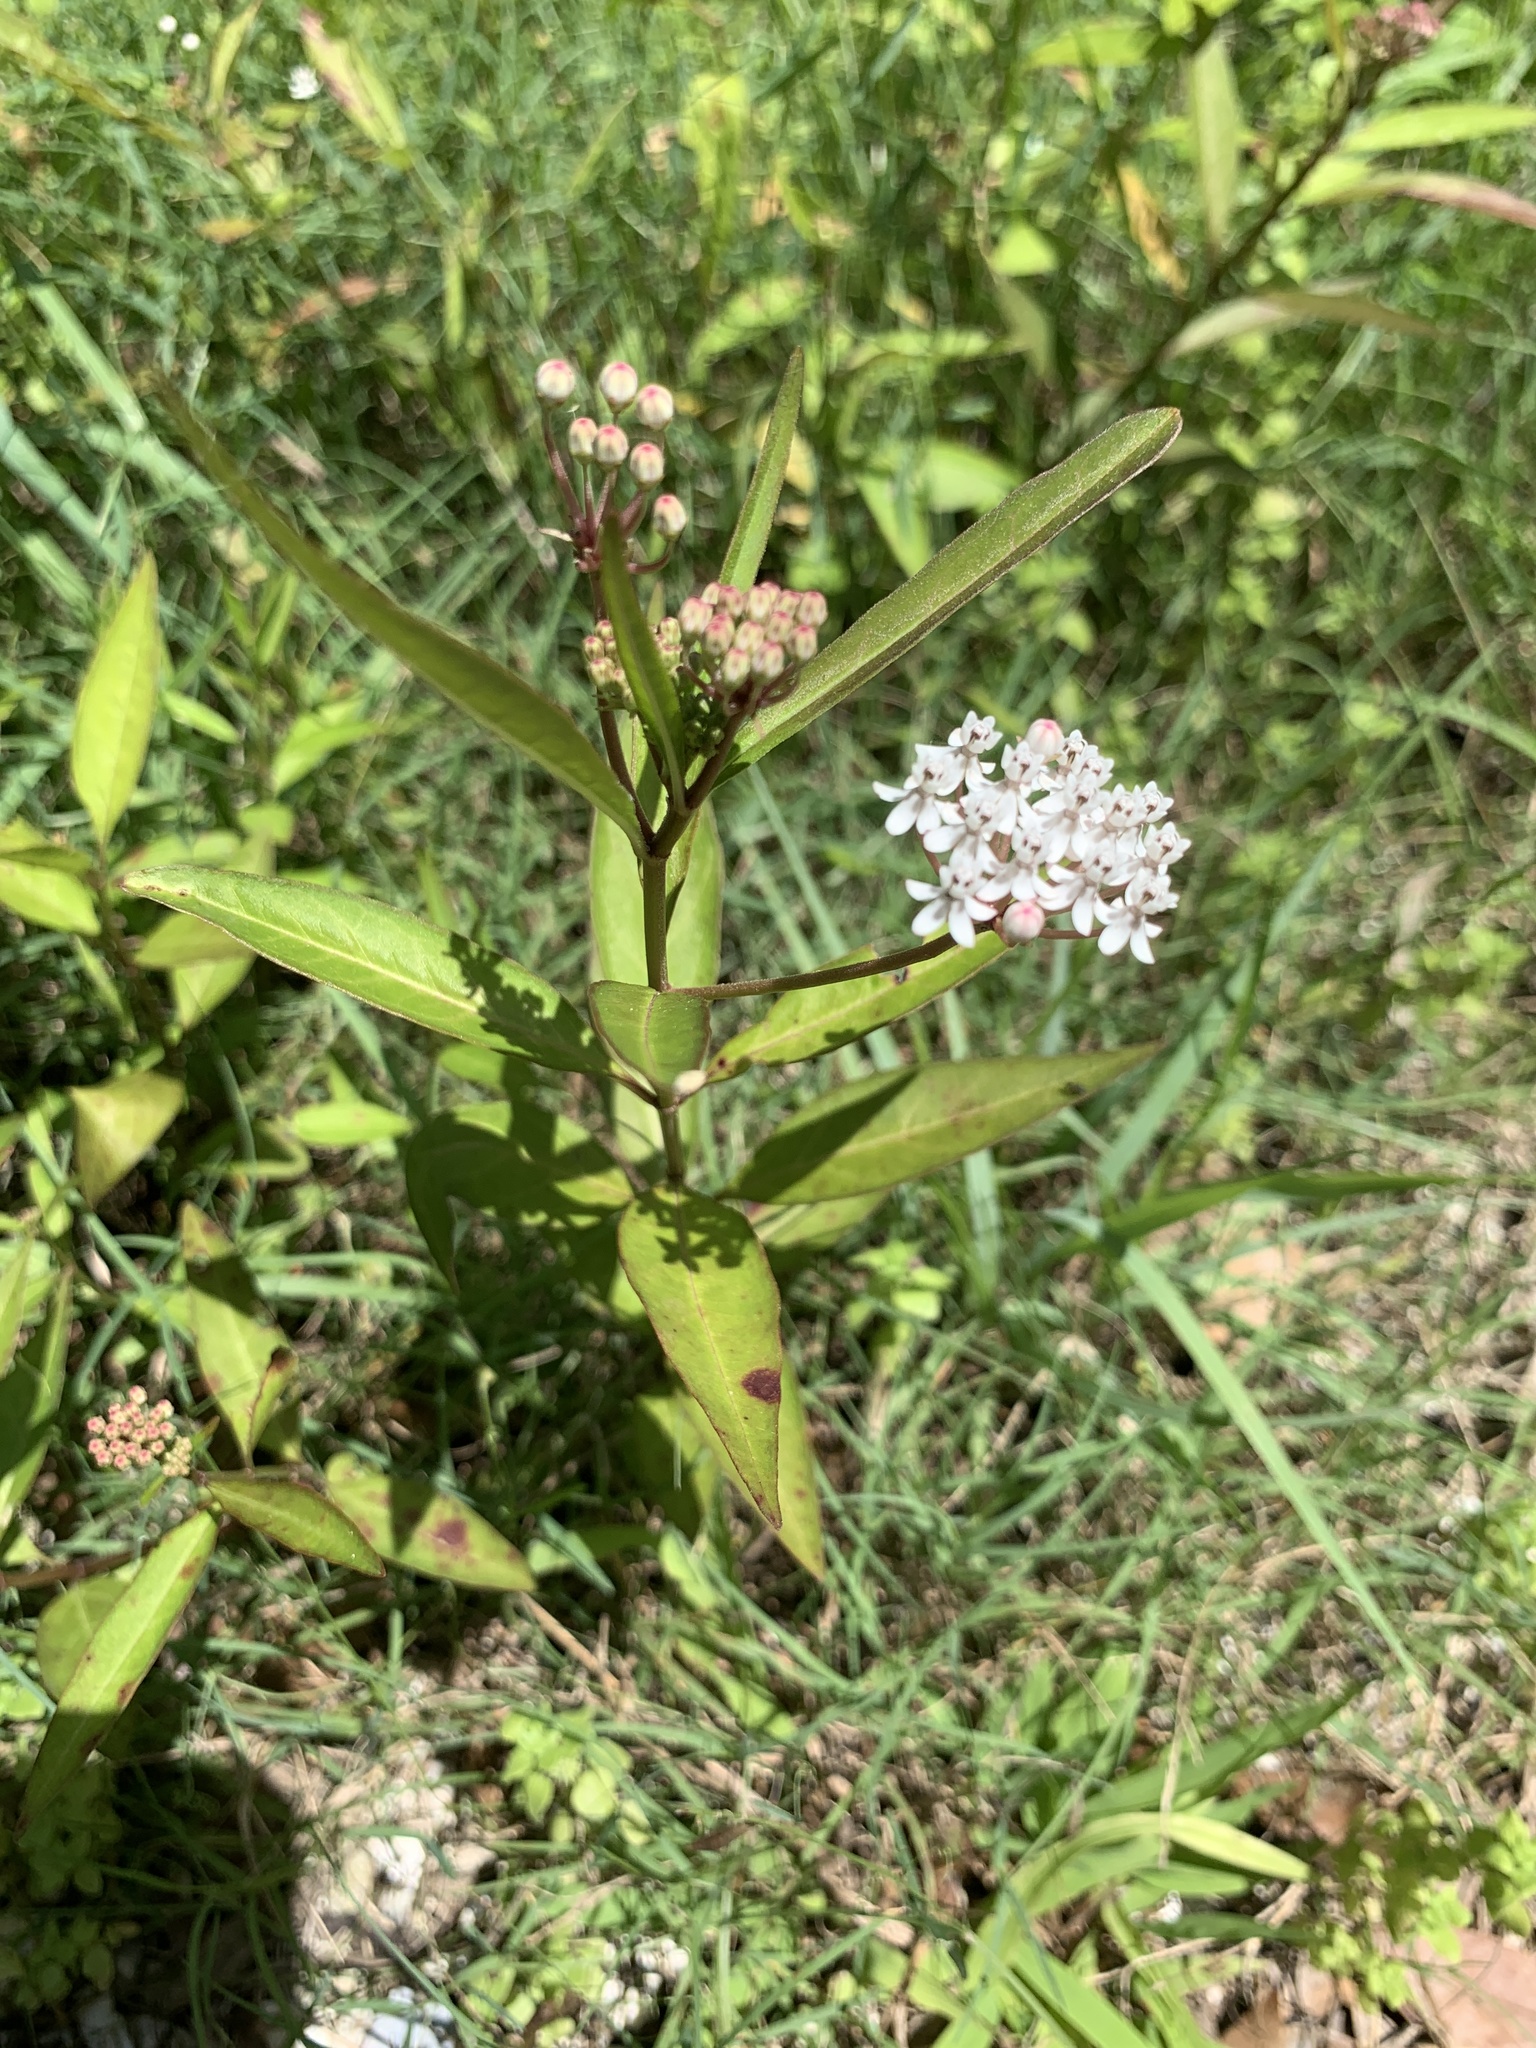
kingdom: Plantae
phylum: Tracheophyta
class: Magnoliopsida
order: Gentianales
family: Apocynaceae
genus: Asclepias
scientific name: Asclepias perennis
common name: Smooth-seed milkweed
